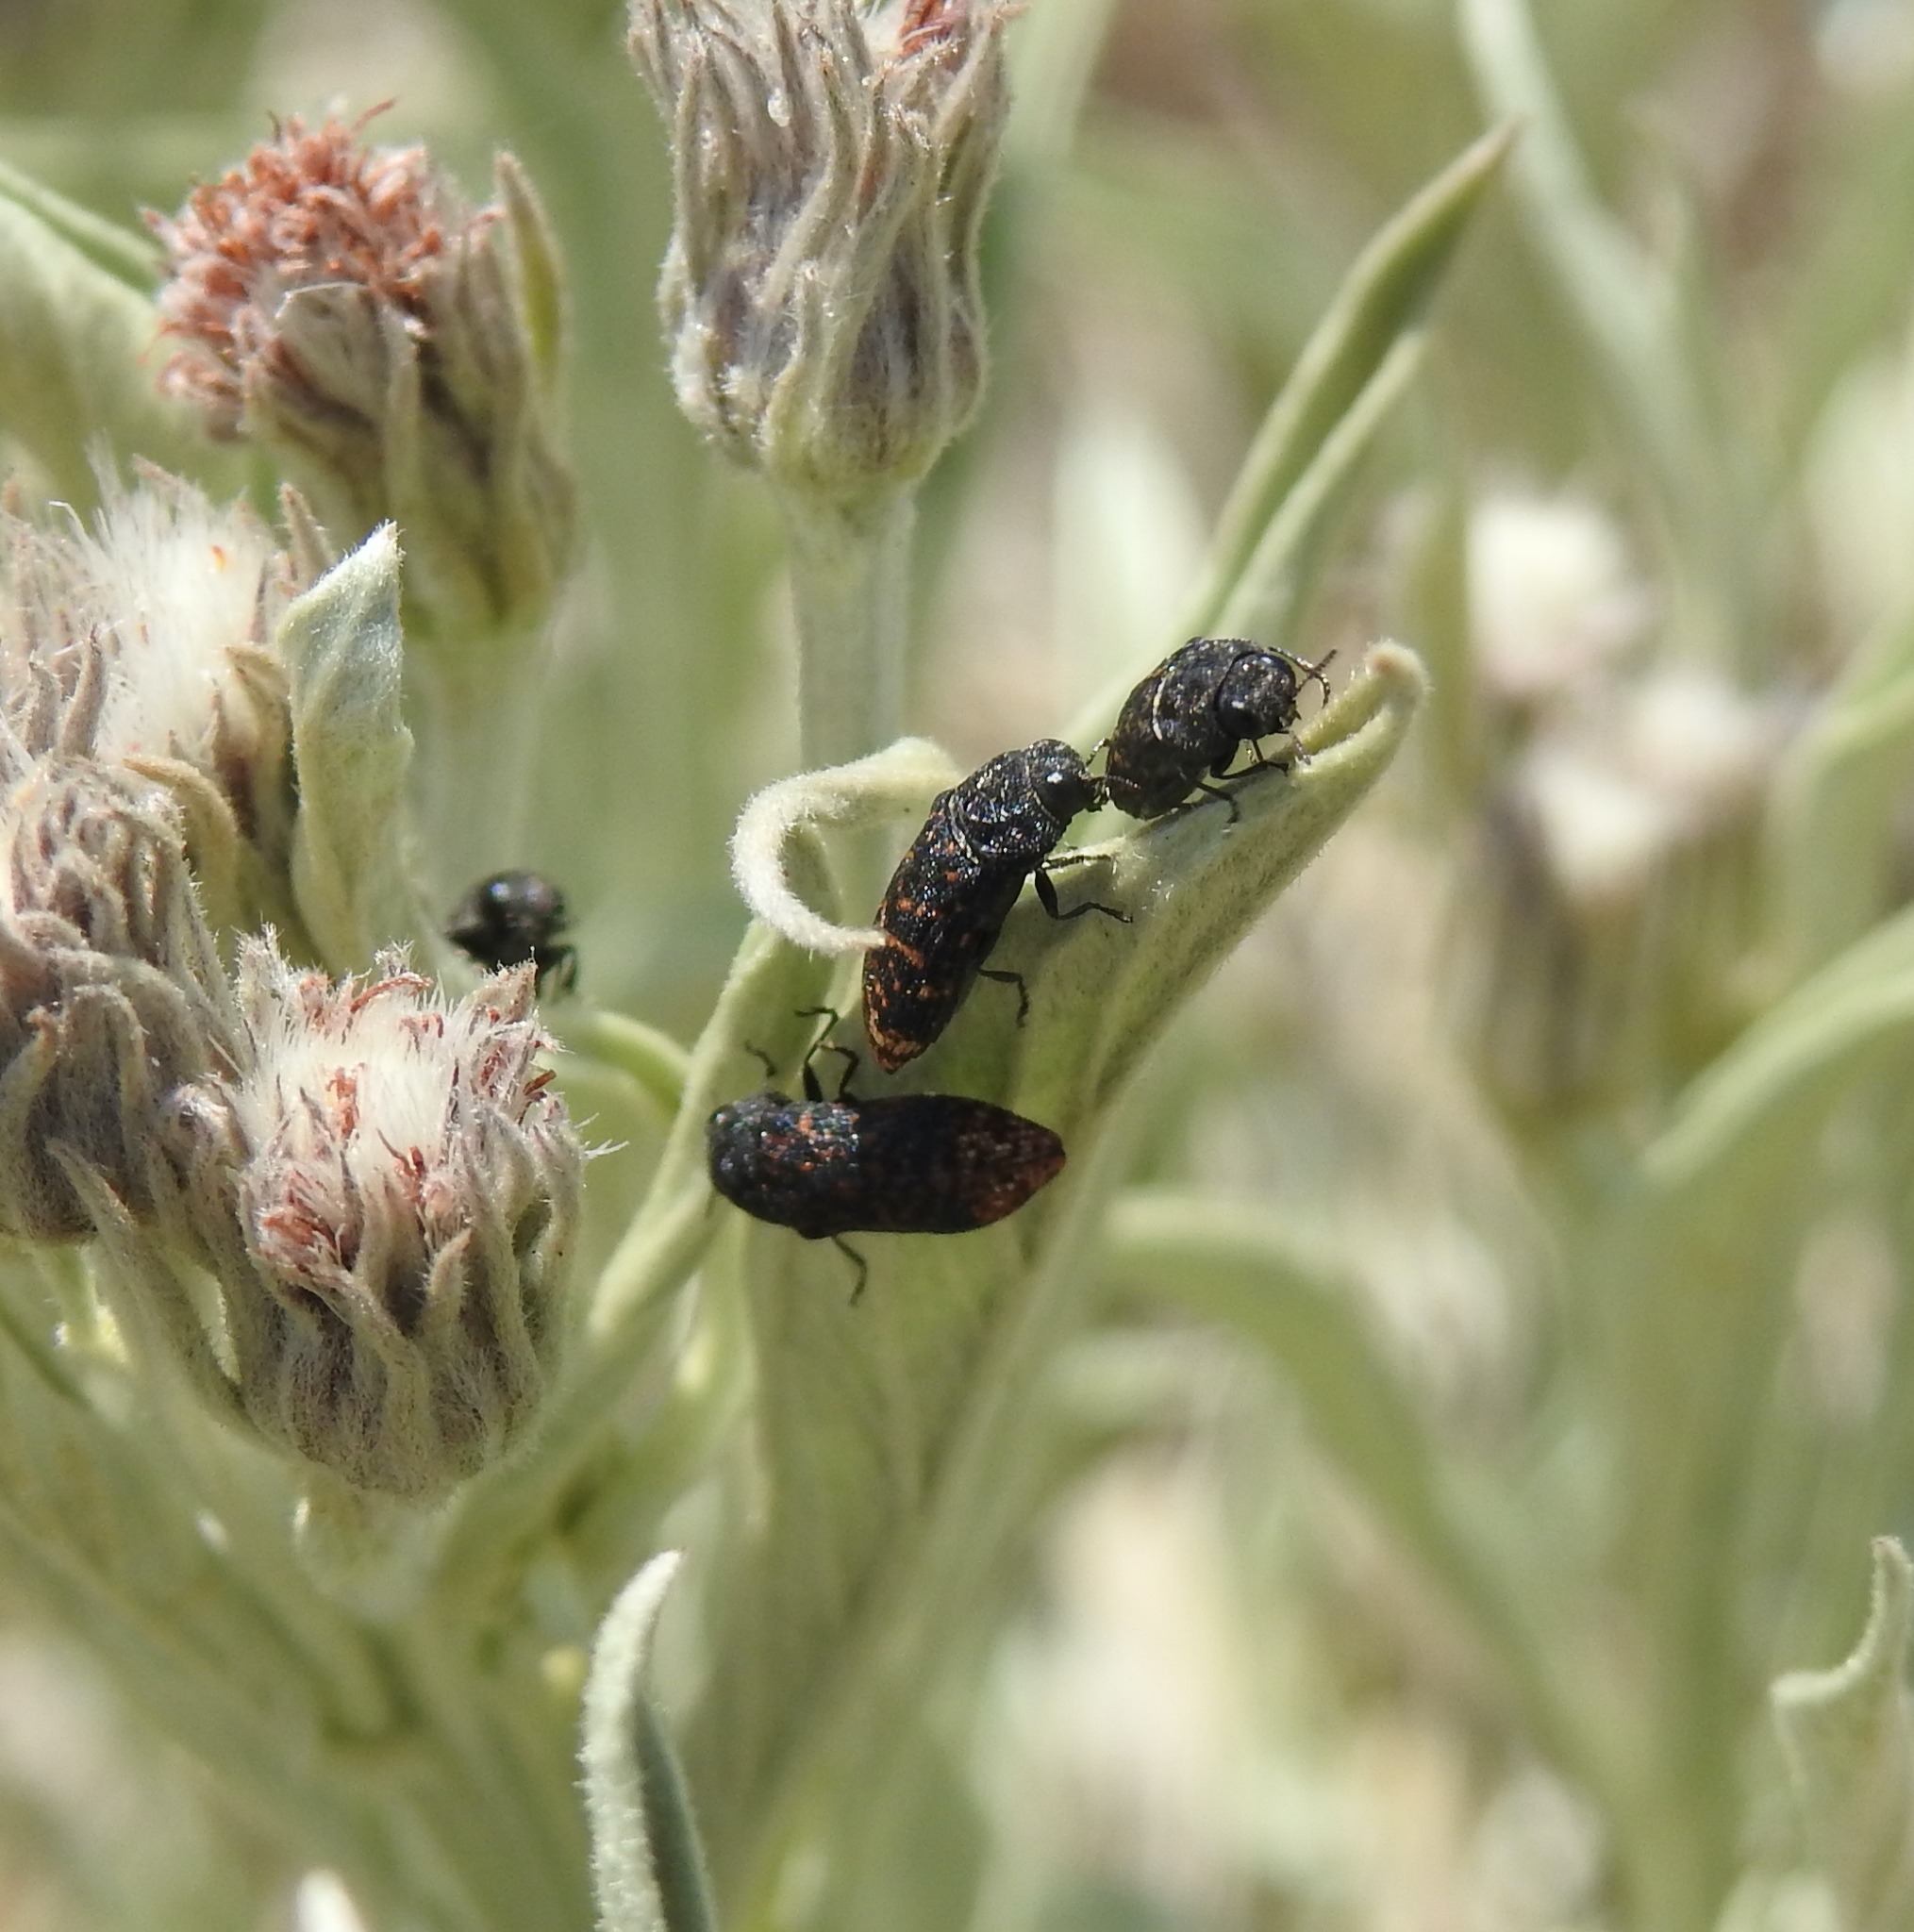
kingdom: Animalia
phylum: Arthropoda
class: Insecta
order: Coleoptera
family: Buprestidae
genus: Acmaeodera
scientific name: Acmaeodera ruficaudis
